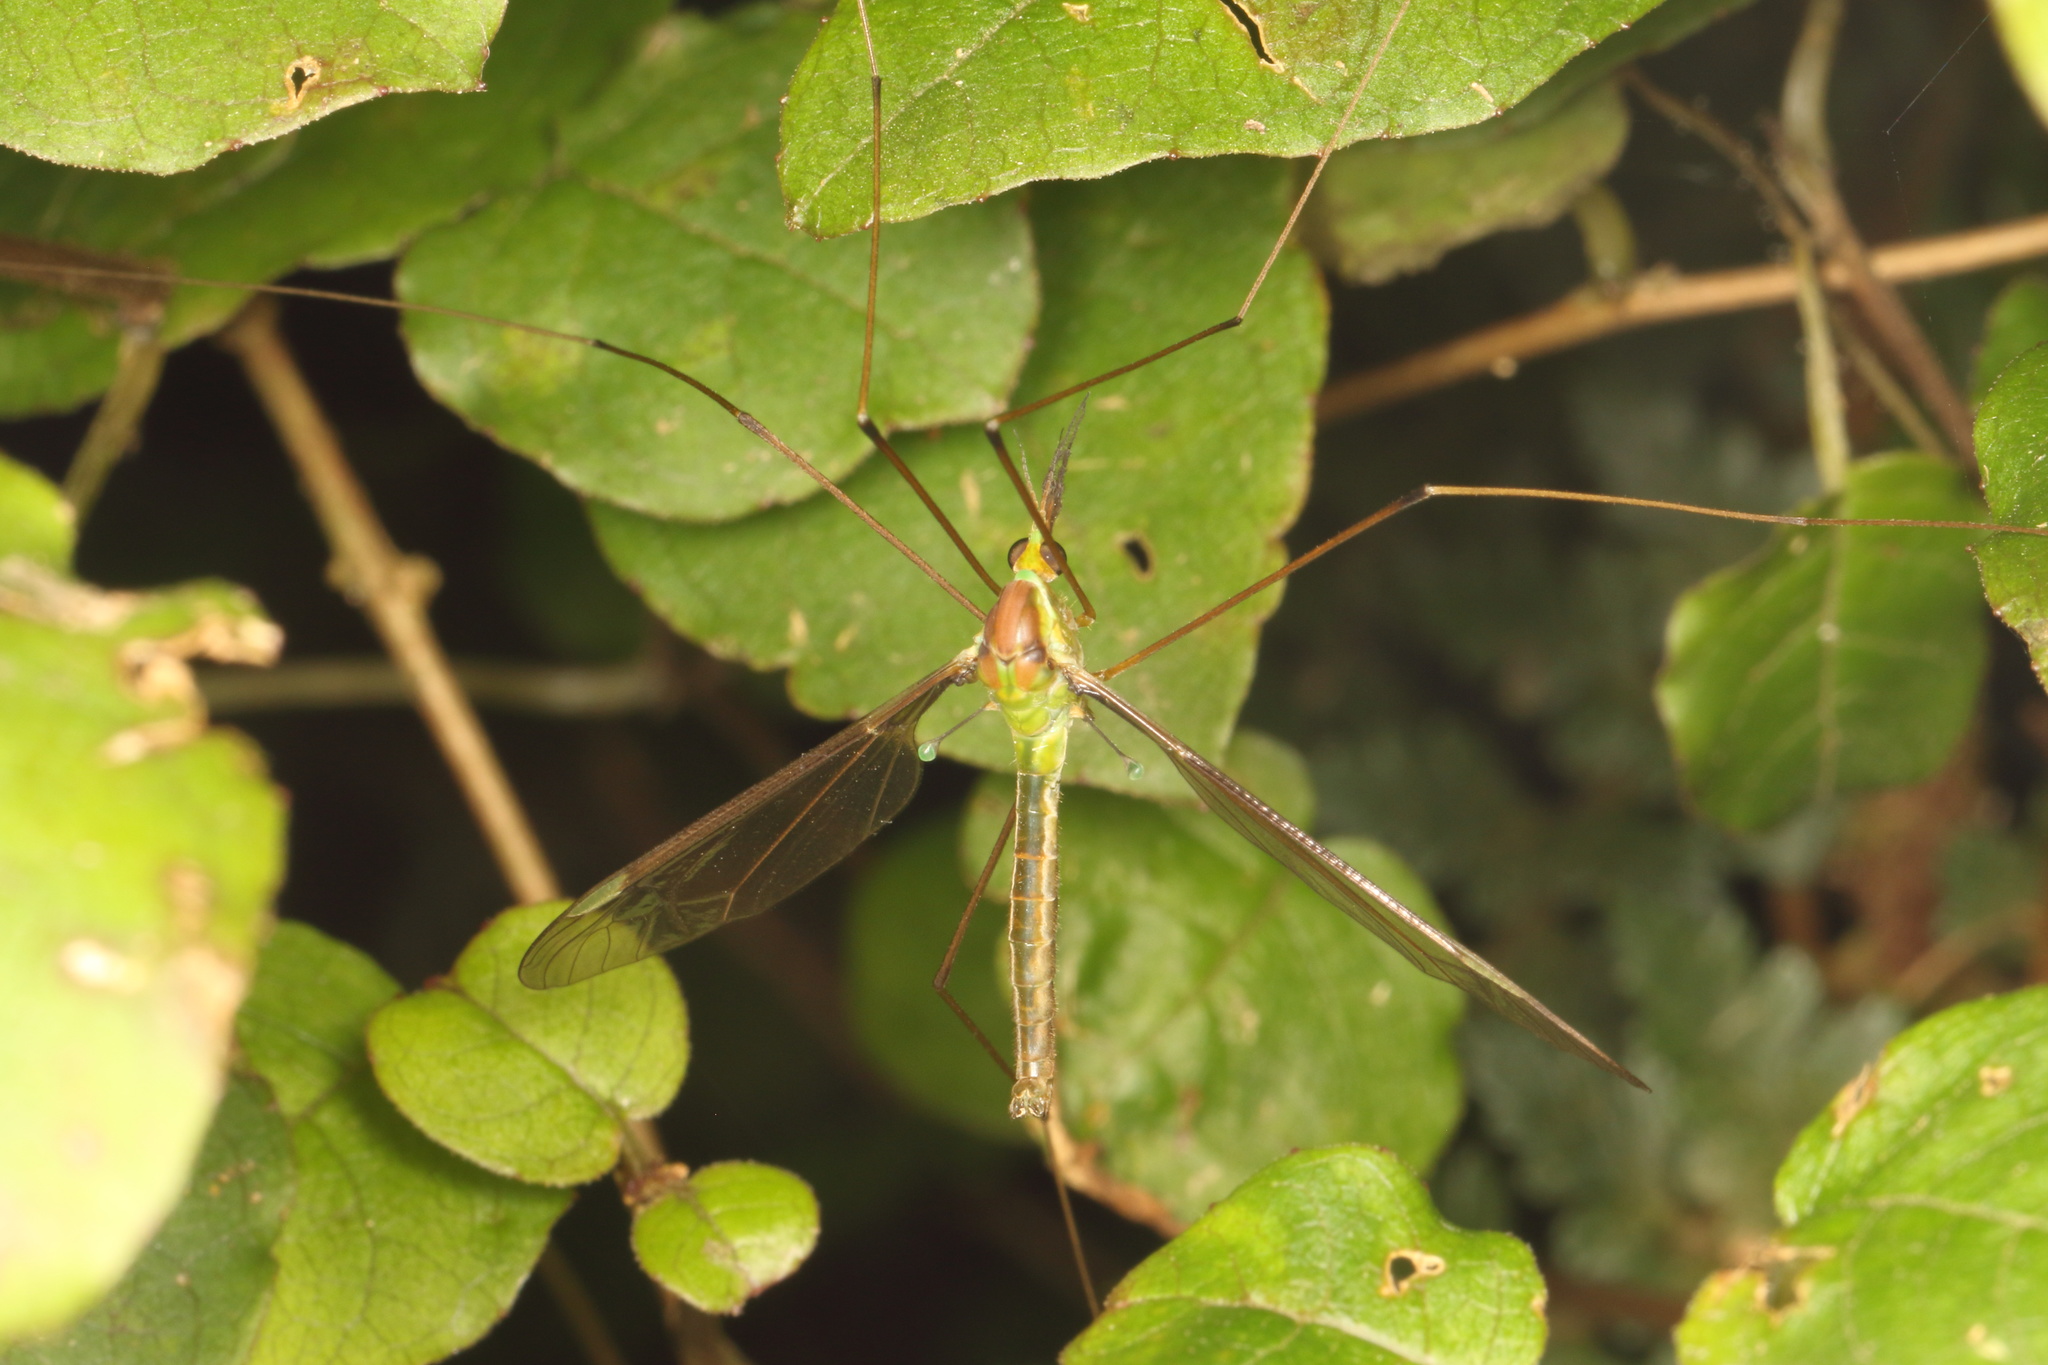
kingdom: Animalia
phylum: Arthropoda
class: Insecta
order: Diptera
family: Tipulidae
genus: Leptotarsus
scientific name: Leptotarsus albistigma
